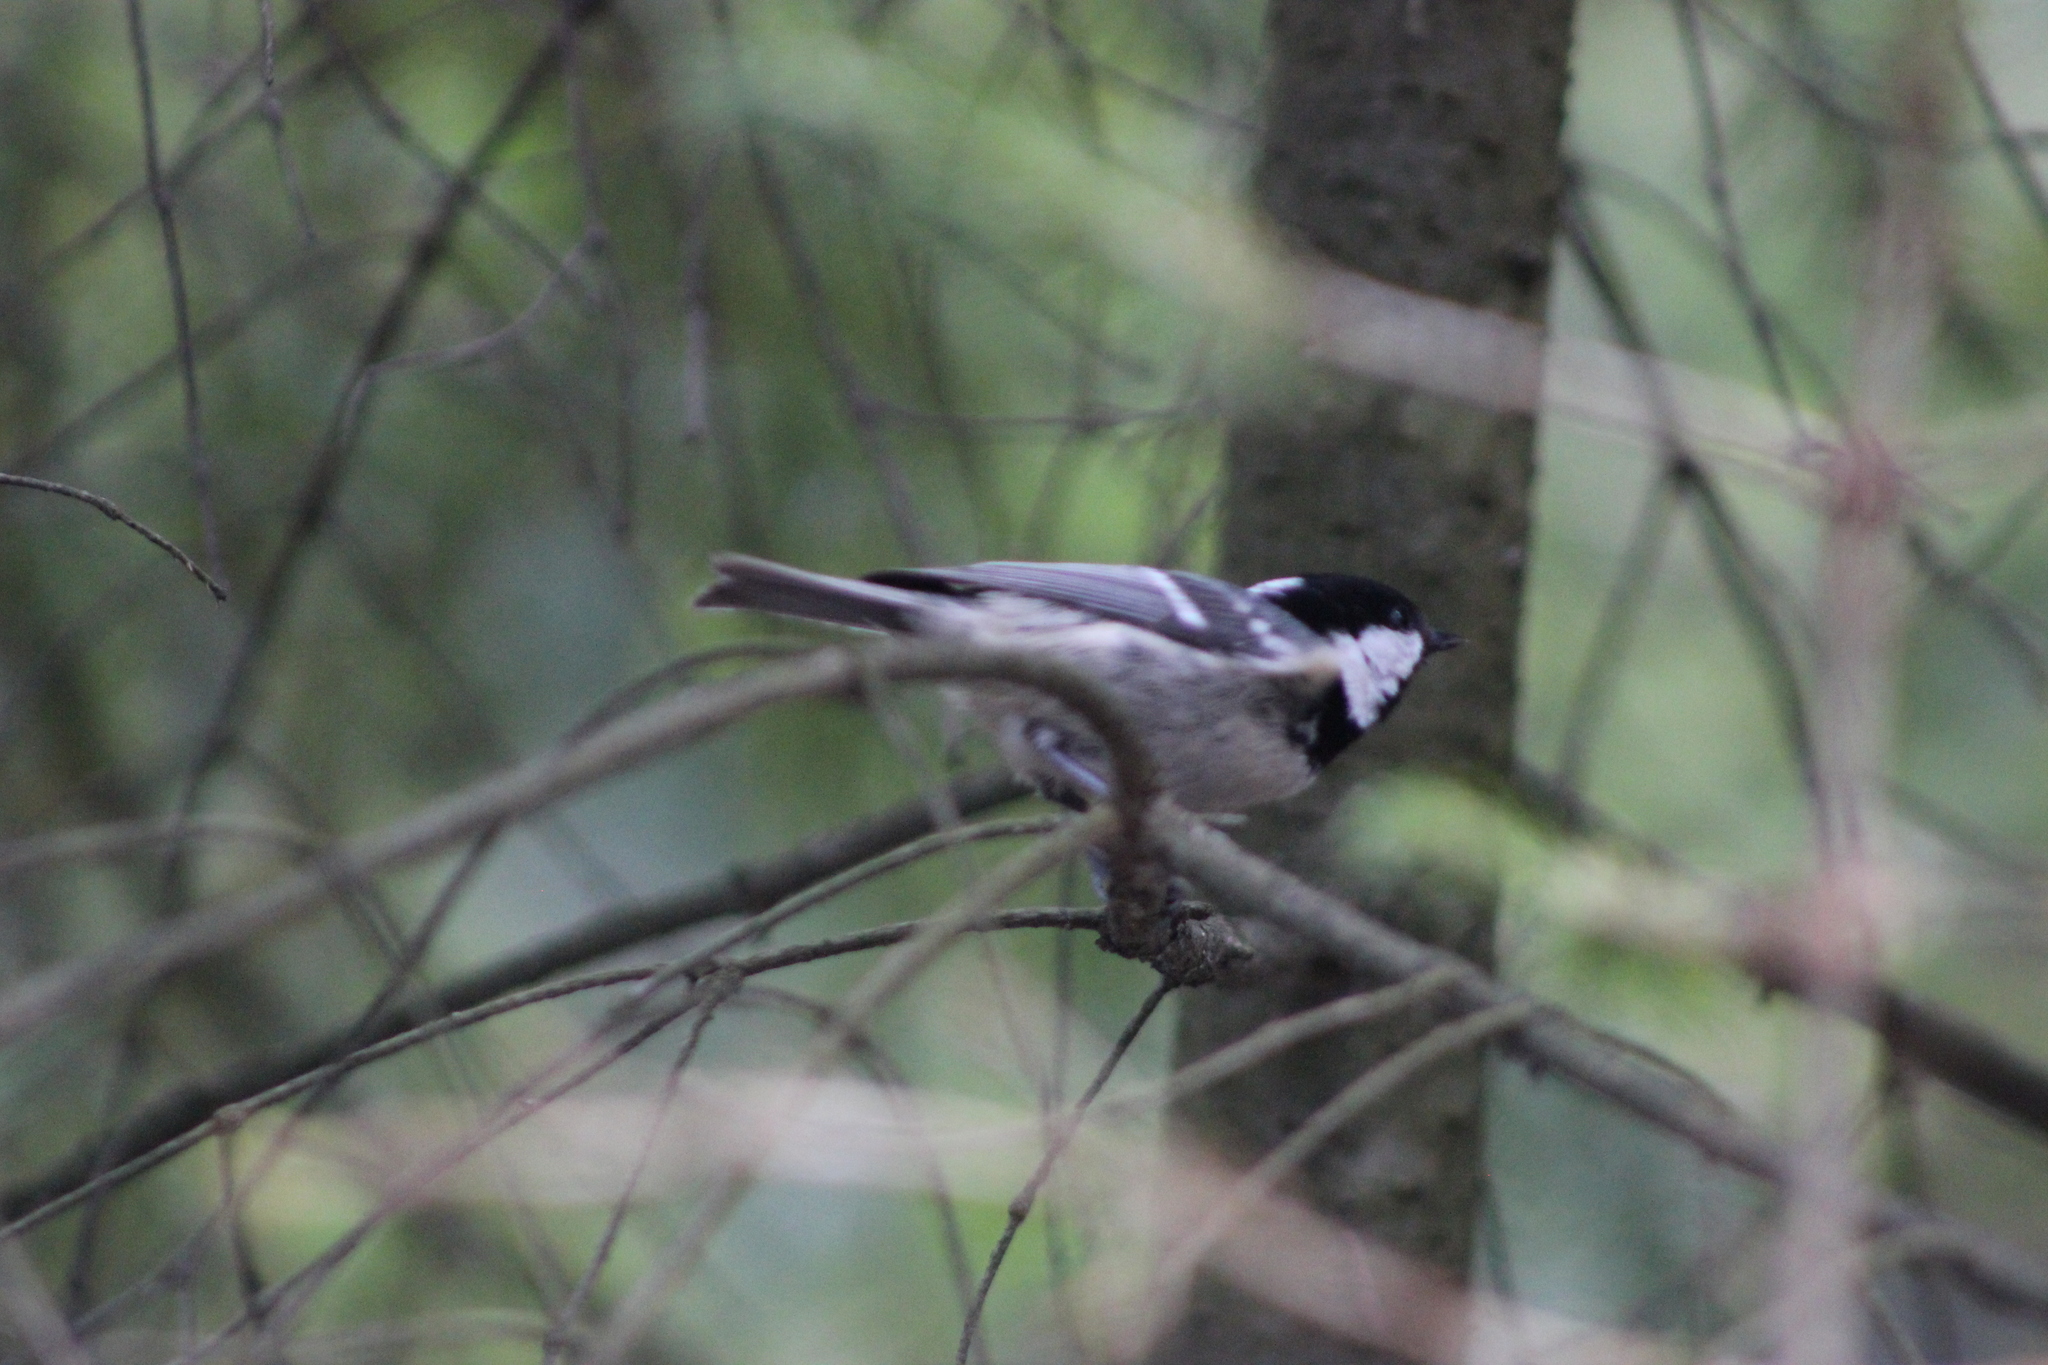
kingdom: Animalia
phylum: Chordata
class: Aves
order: Passeriformes
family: Paridae
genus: Periparus
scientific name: Periparus ater
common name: Coal tit
